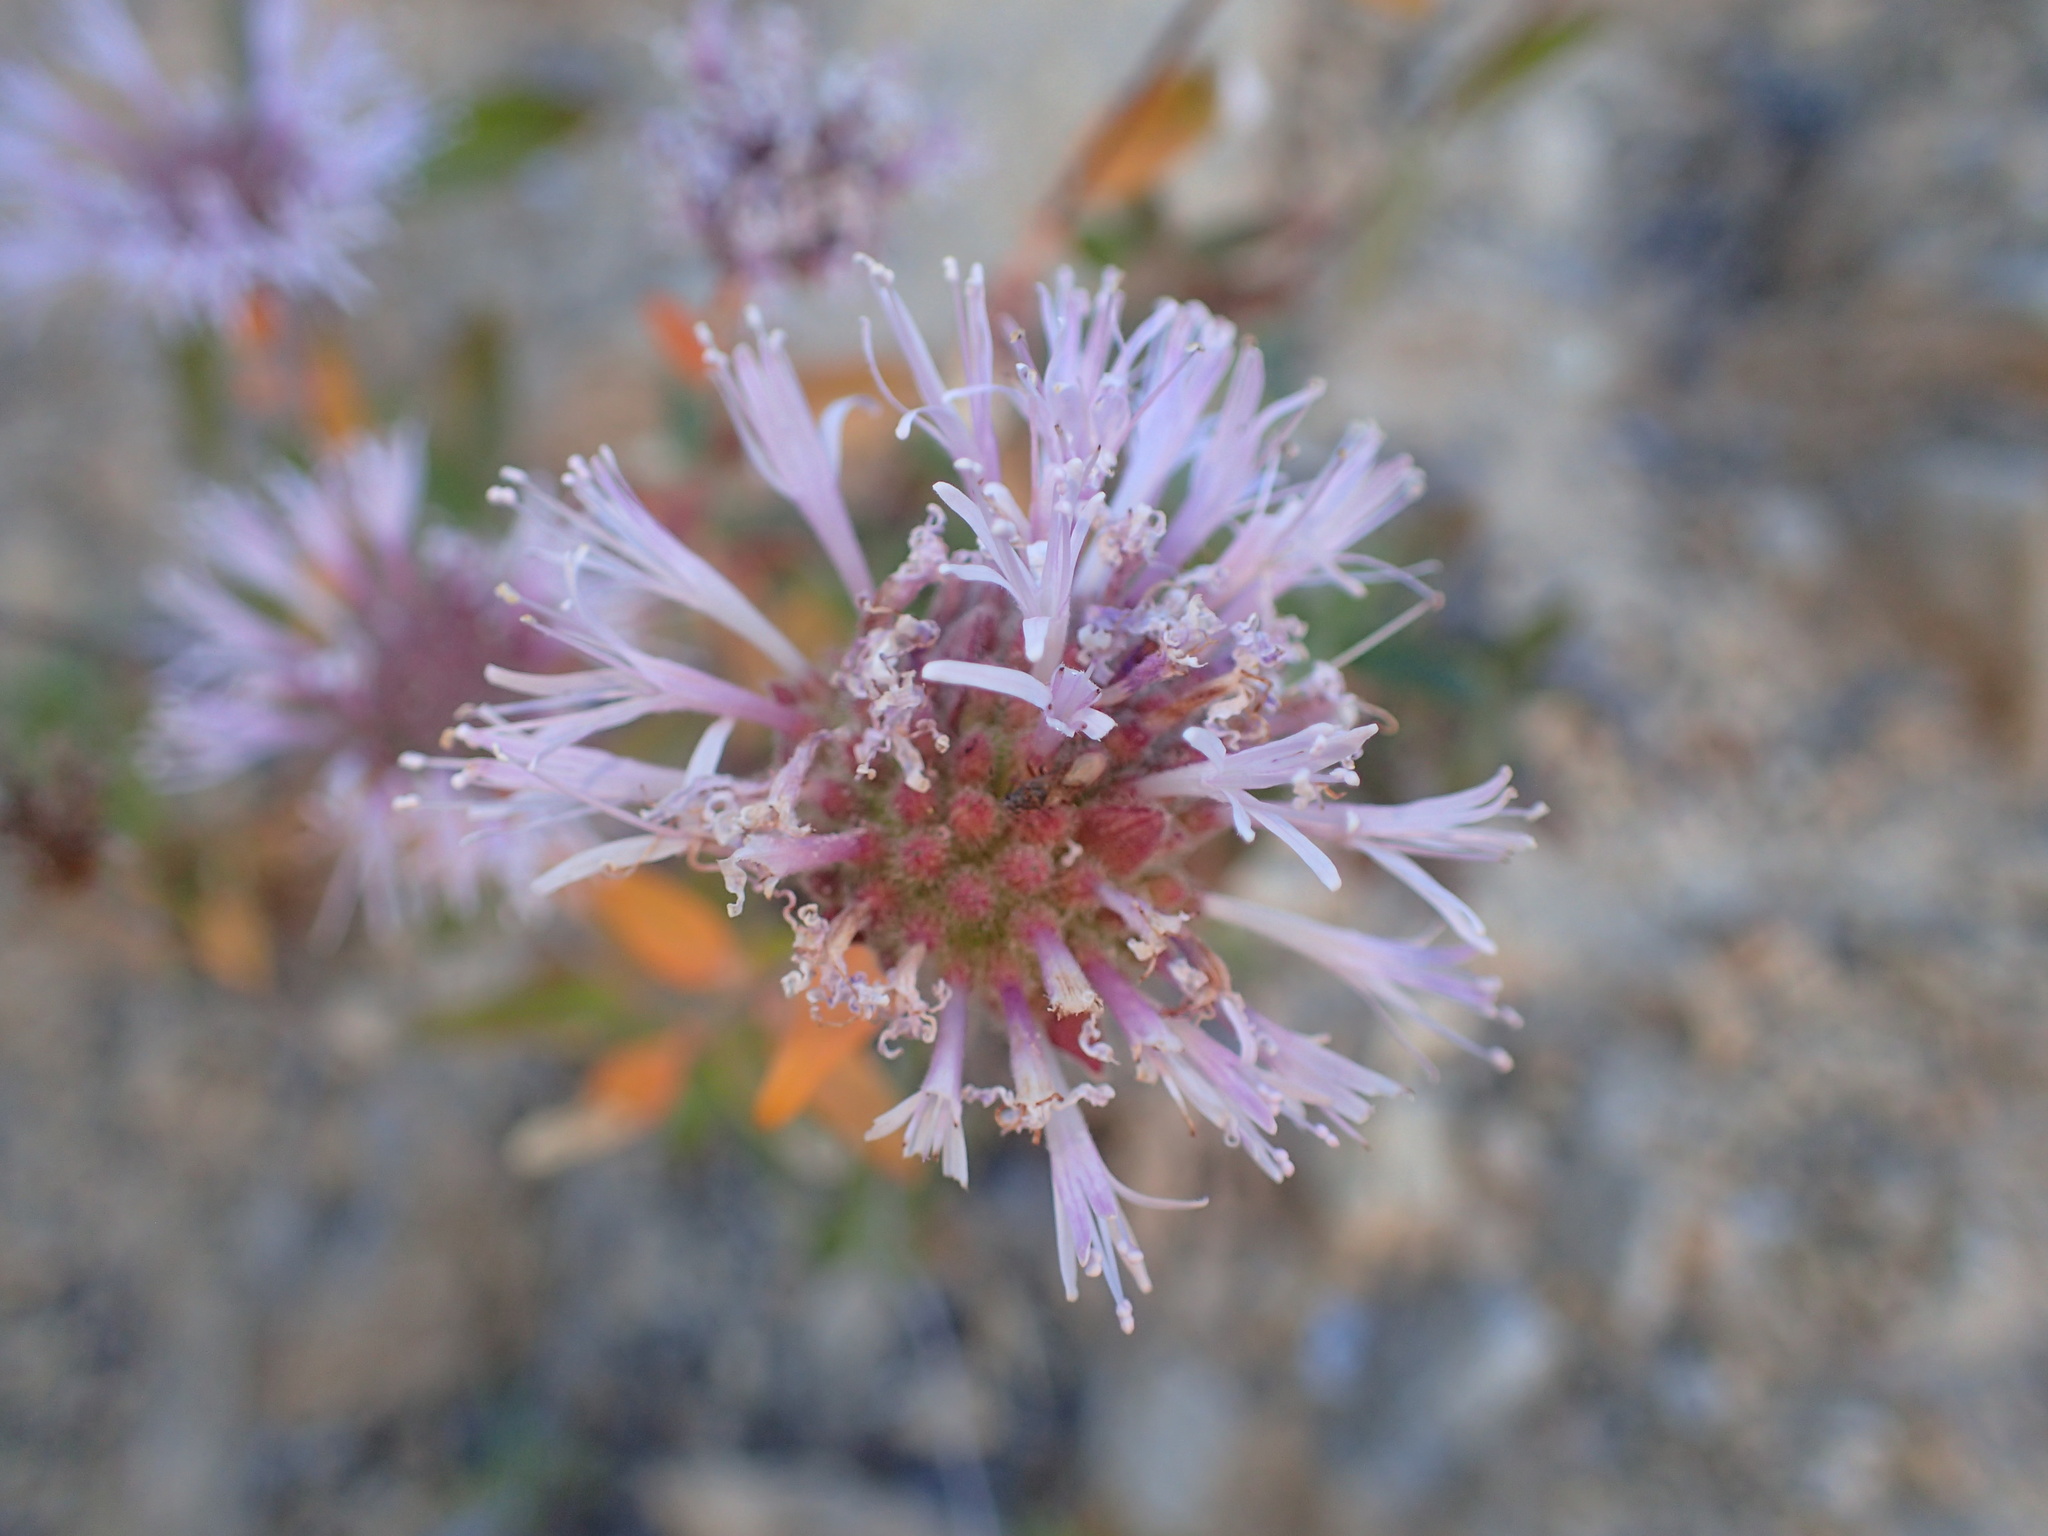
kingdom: Plantae
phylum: Tracheophyta
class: Magnoliopsida
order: Lamiales
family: Lamiaceae
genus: Monardella
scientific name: Monardella hypoleuca
